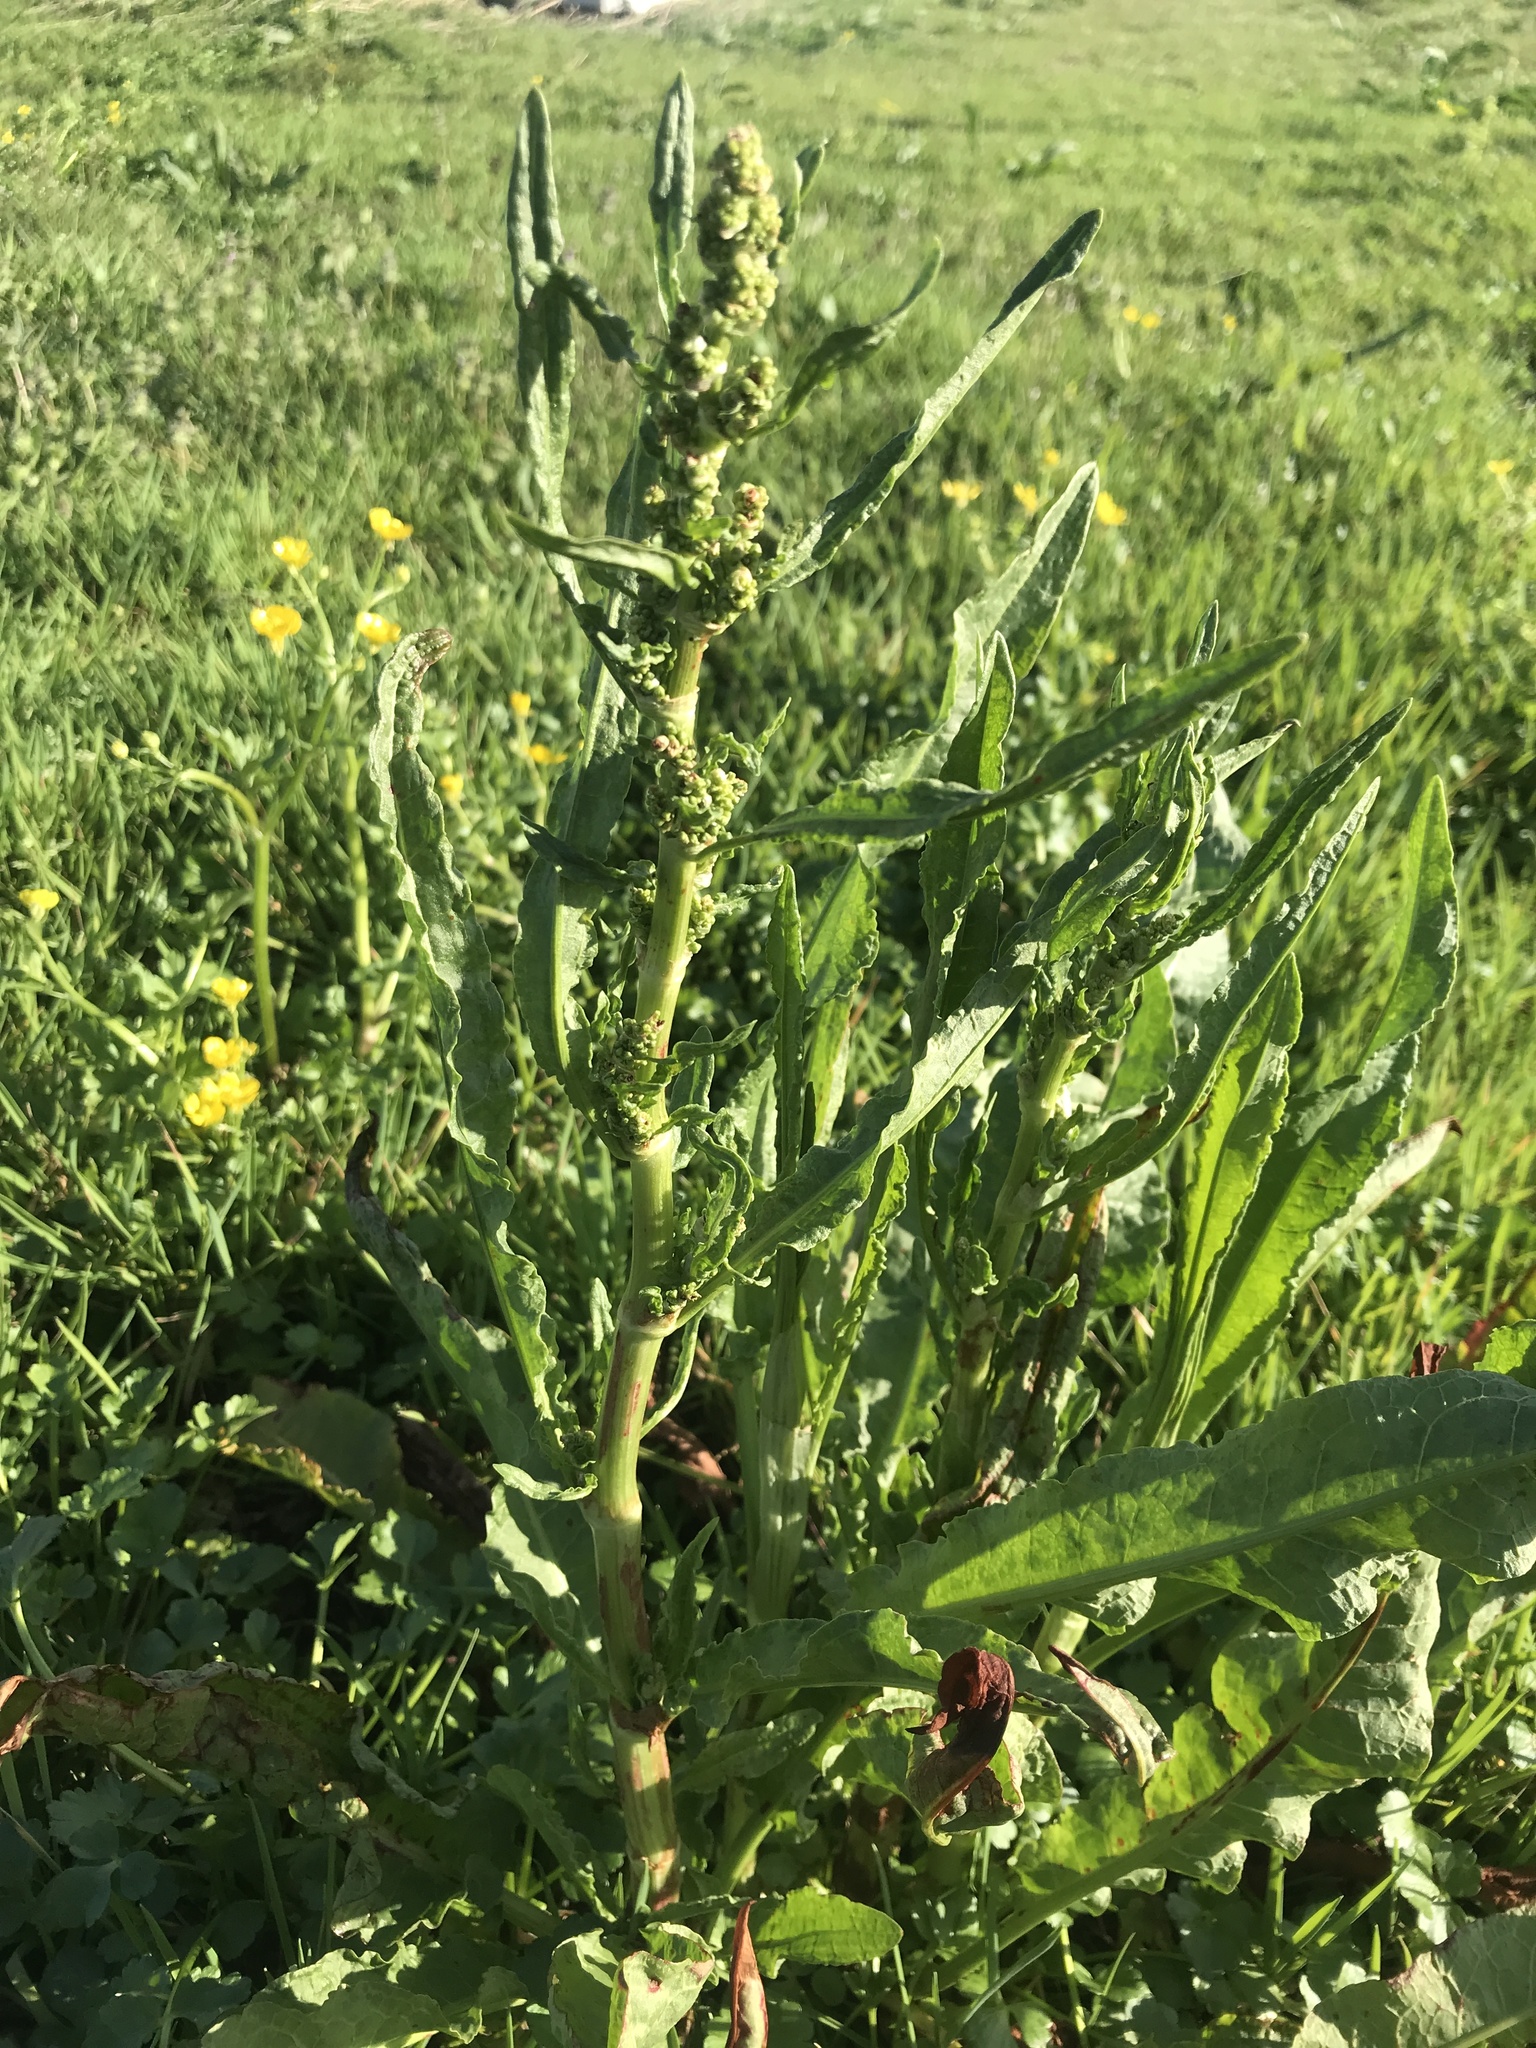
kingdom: Plantae
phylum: Tracheophyta
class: Magnoliopsida
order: Caryophyllales
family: Polygonaceae
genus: Rumex
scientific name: Rumex crispus
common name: Curled dock
